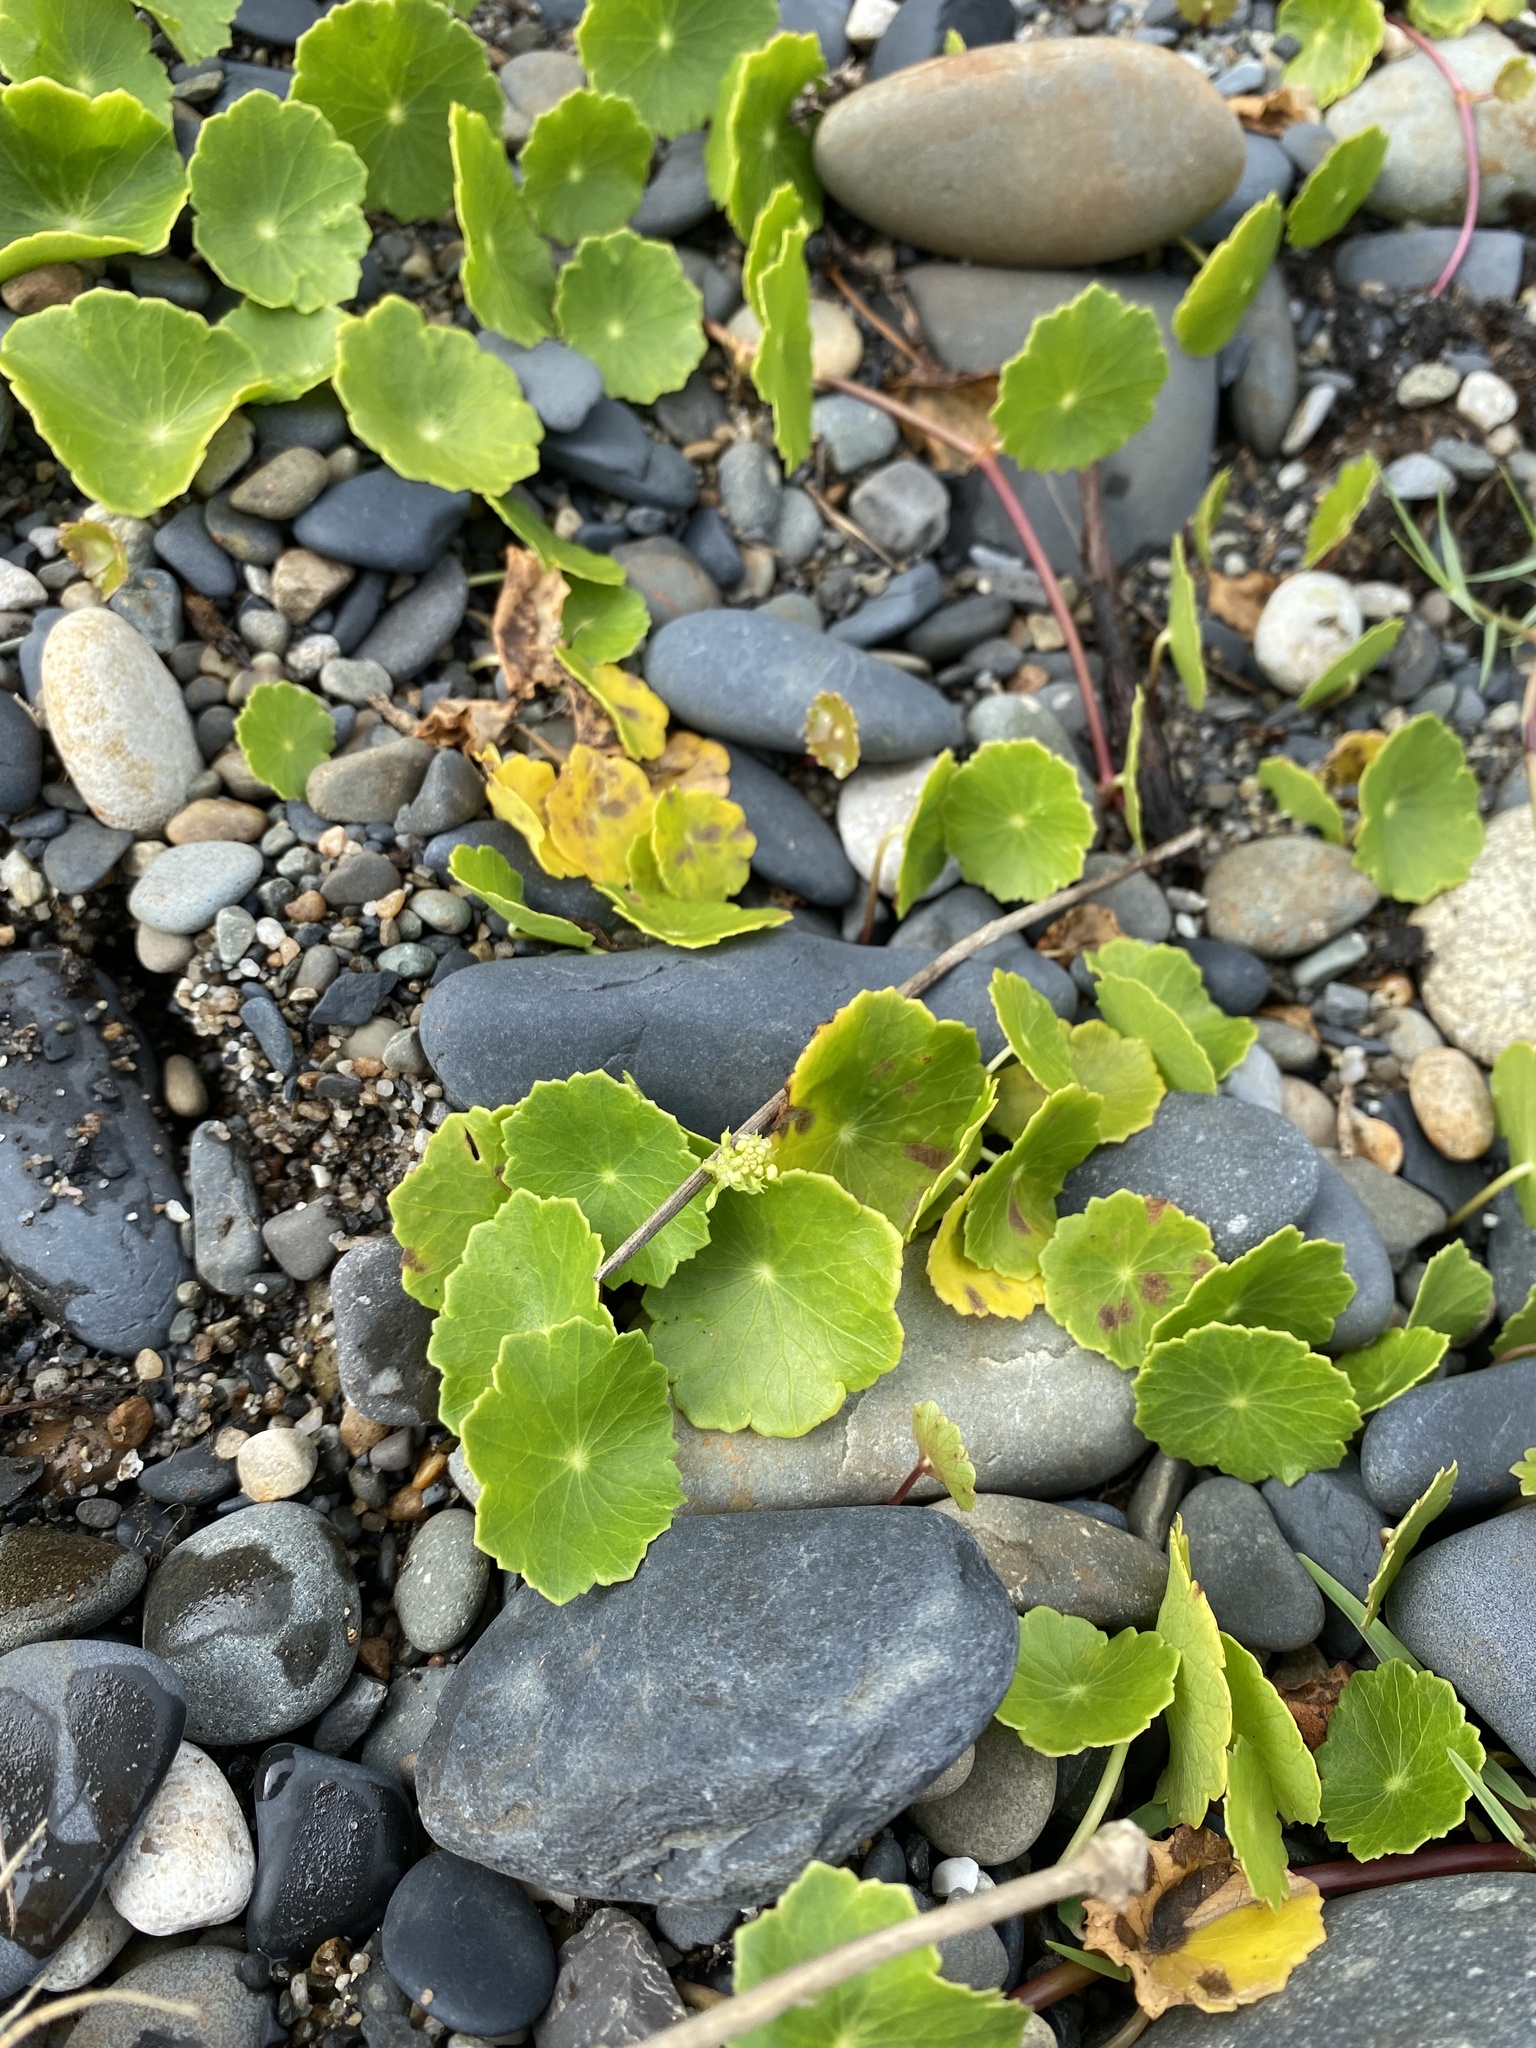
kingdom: Plantae
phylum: Tracheophyta
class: Magnoliopsida
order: Apiales
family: Araliaceae
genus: Hydrocotyle
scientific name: Hydrocotyle bonariensis
